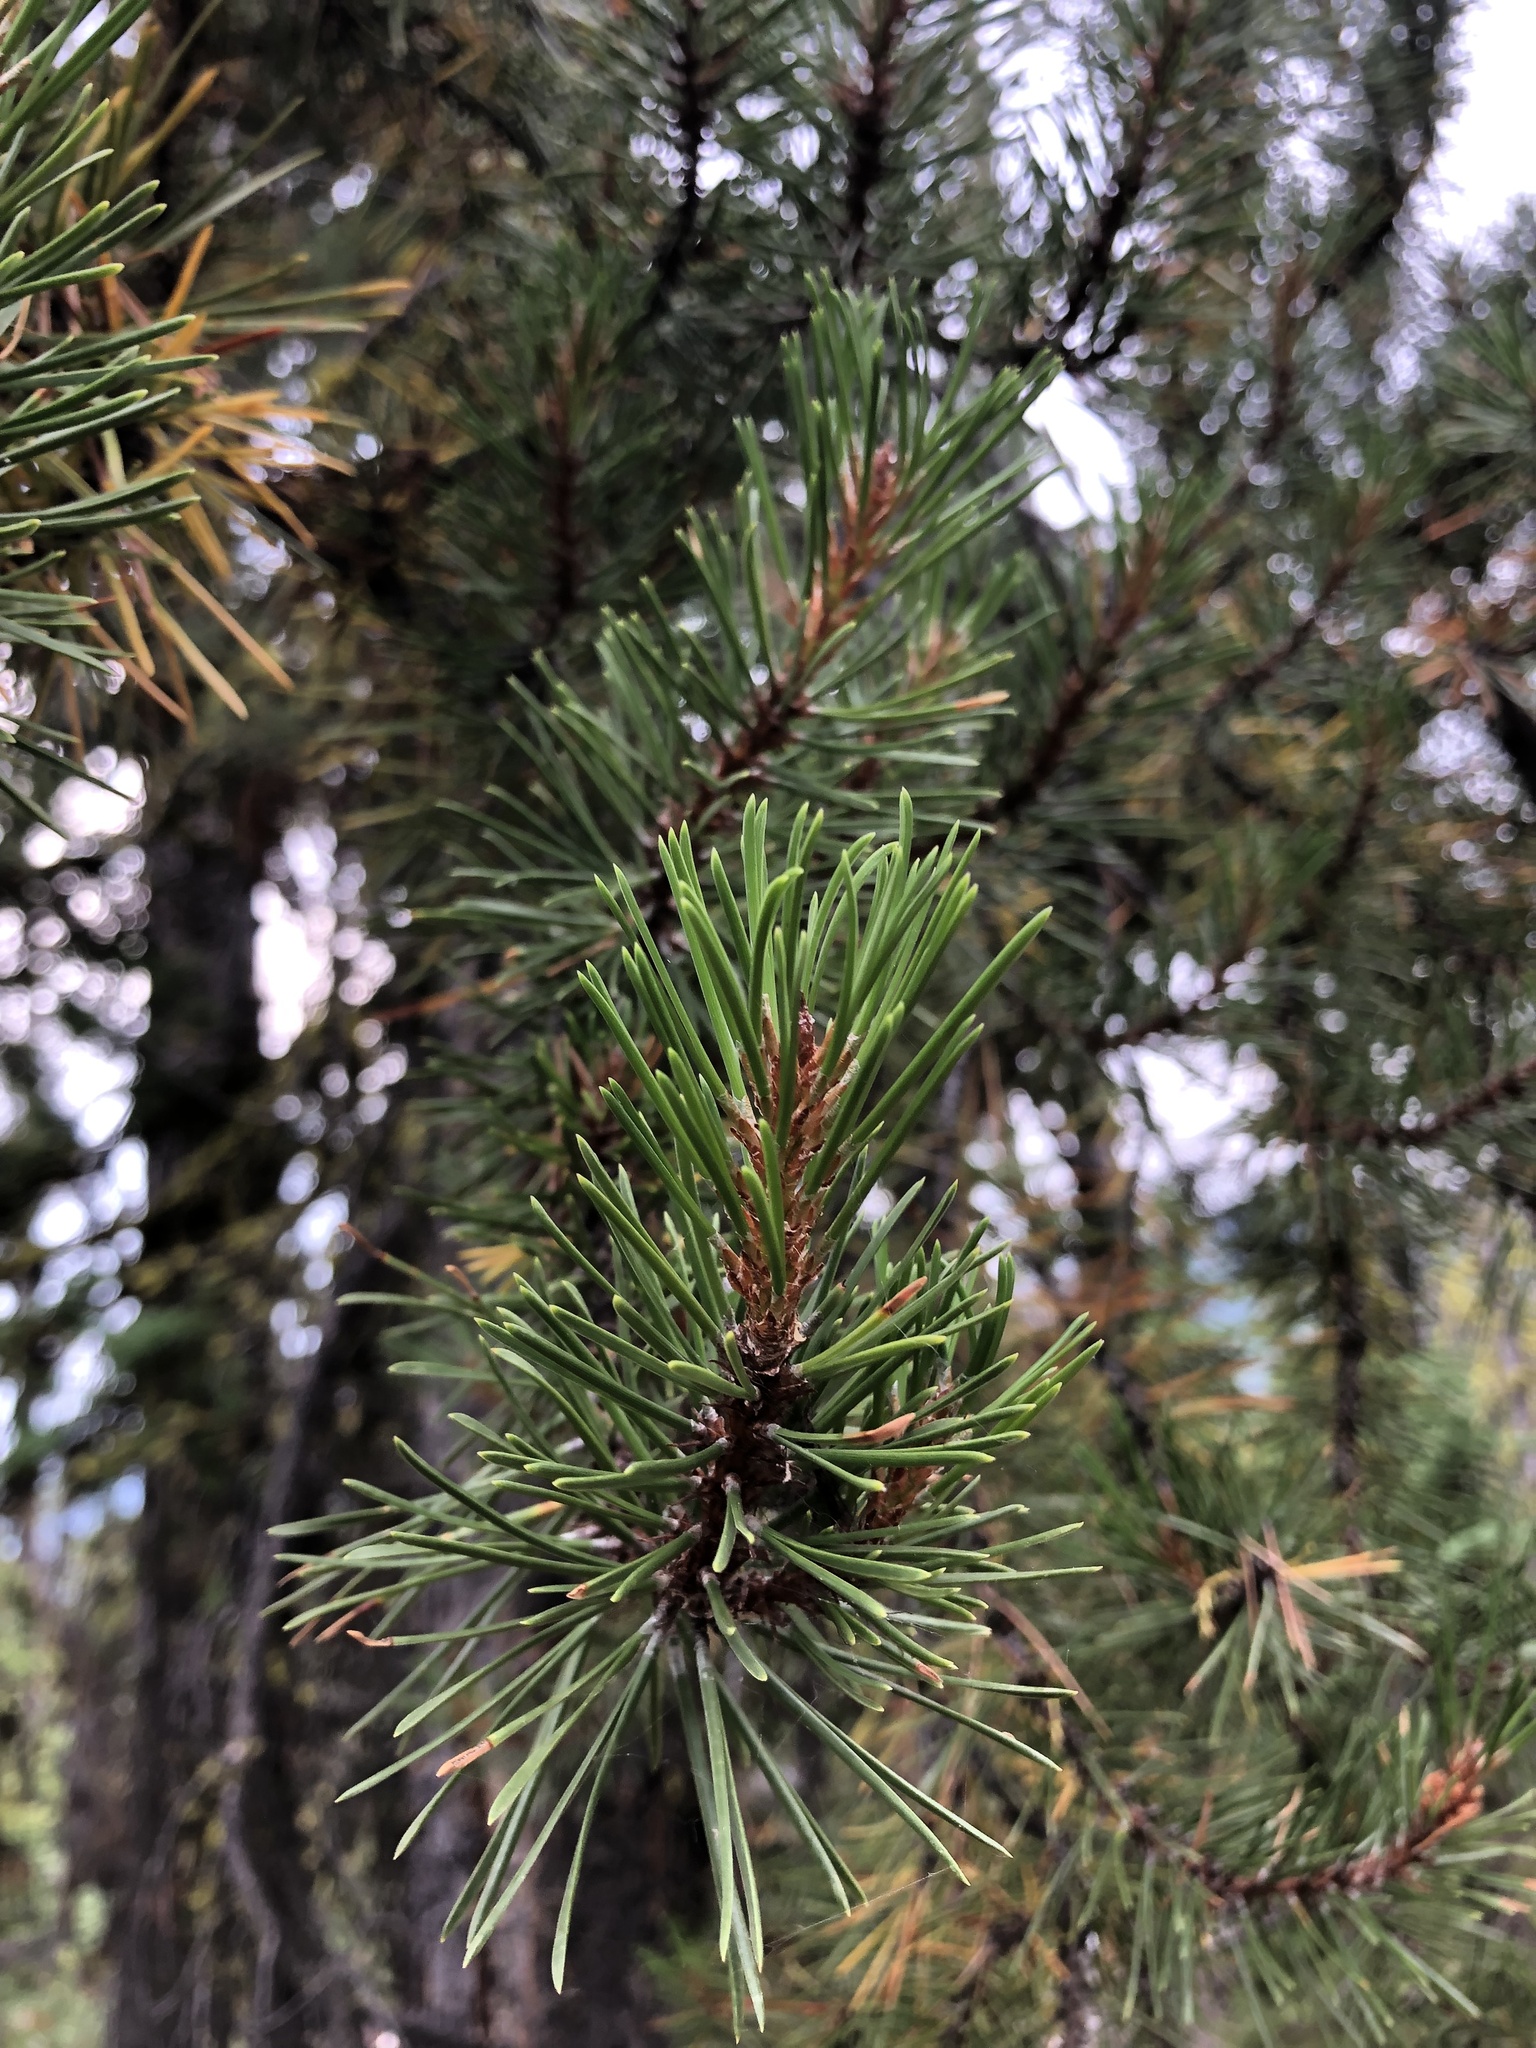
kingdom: Plantae
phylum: Tracheophyta
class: Pinopsida
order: Pinales
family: Pinaceae
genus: Pinus
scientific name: Pinus contorta
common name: Lodgepole pine
